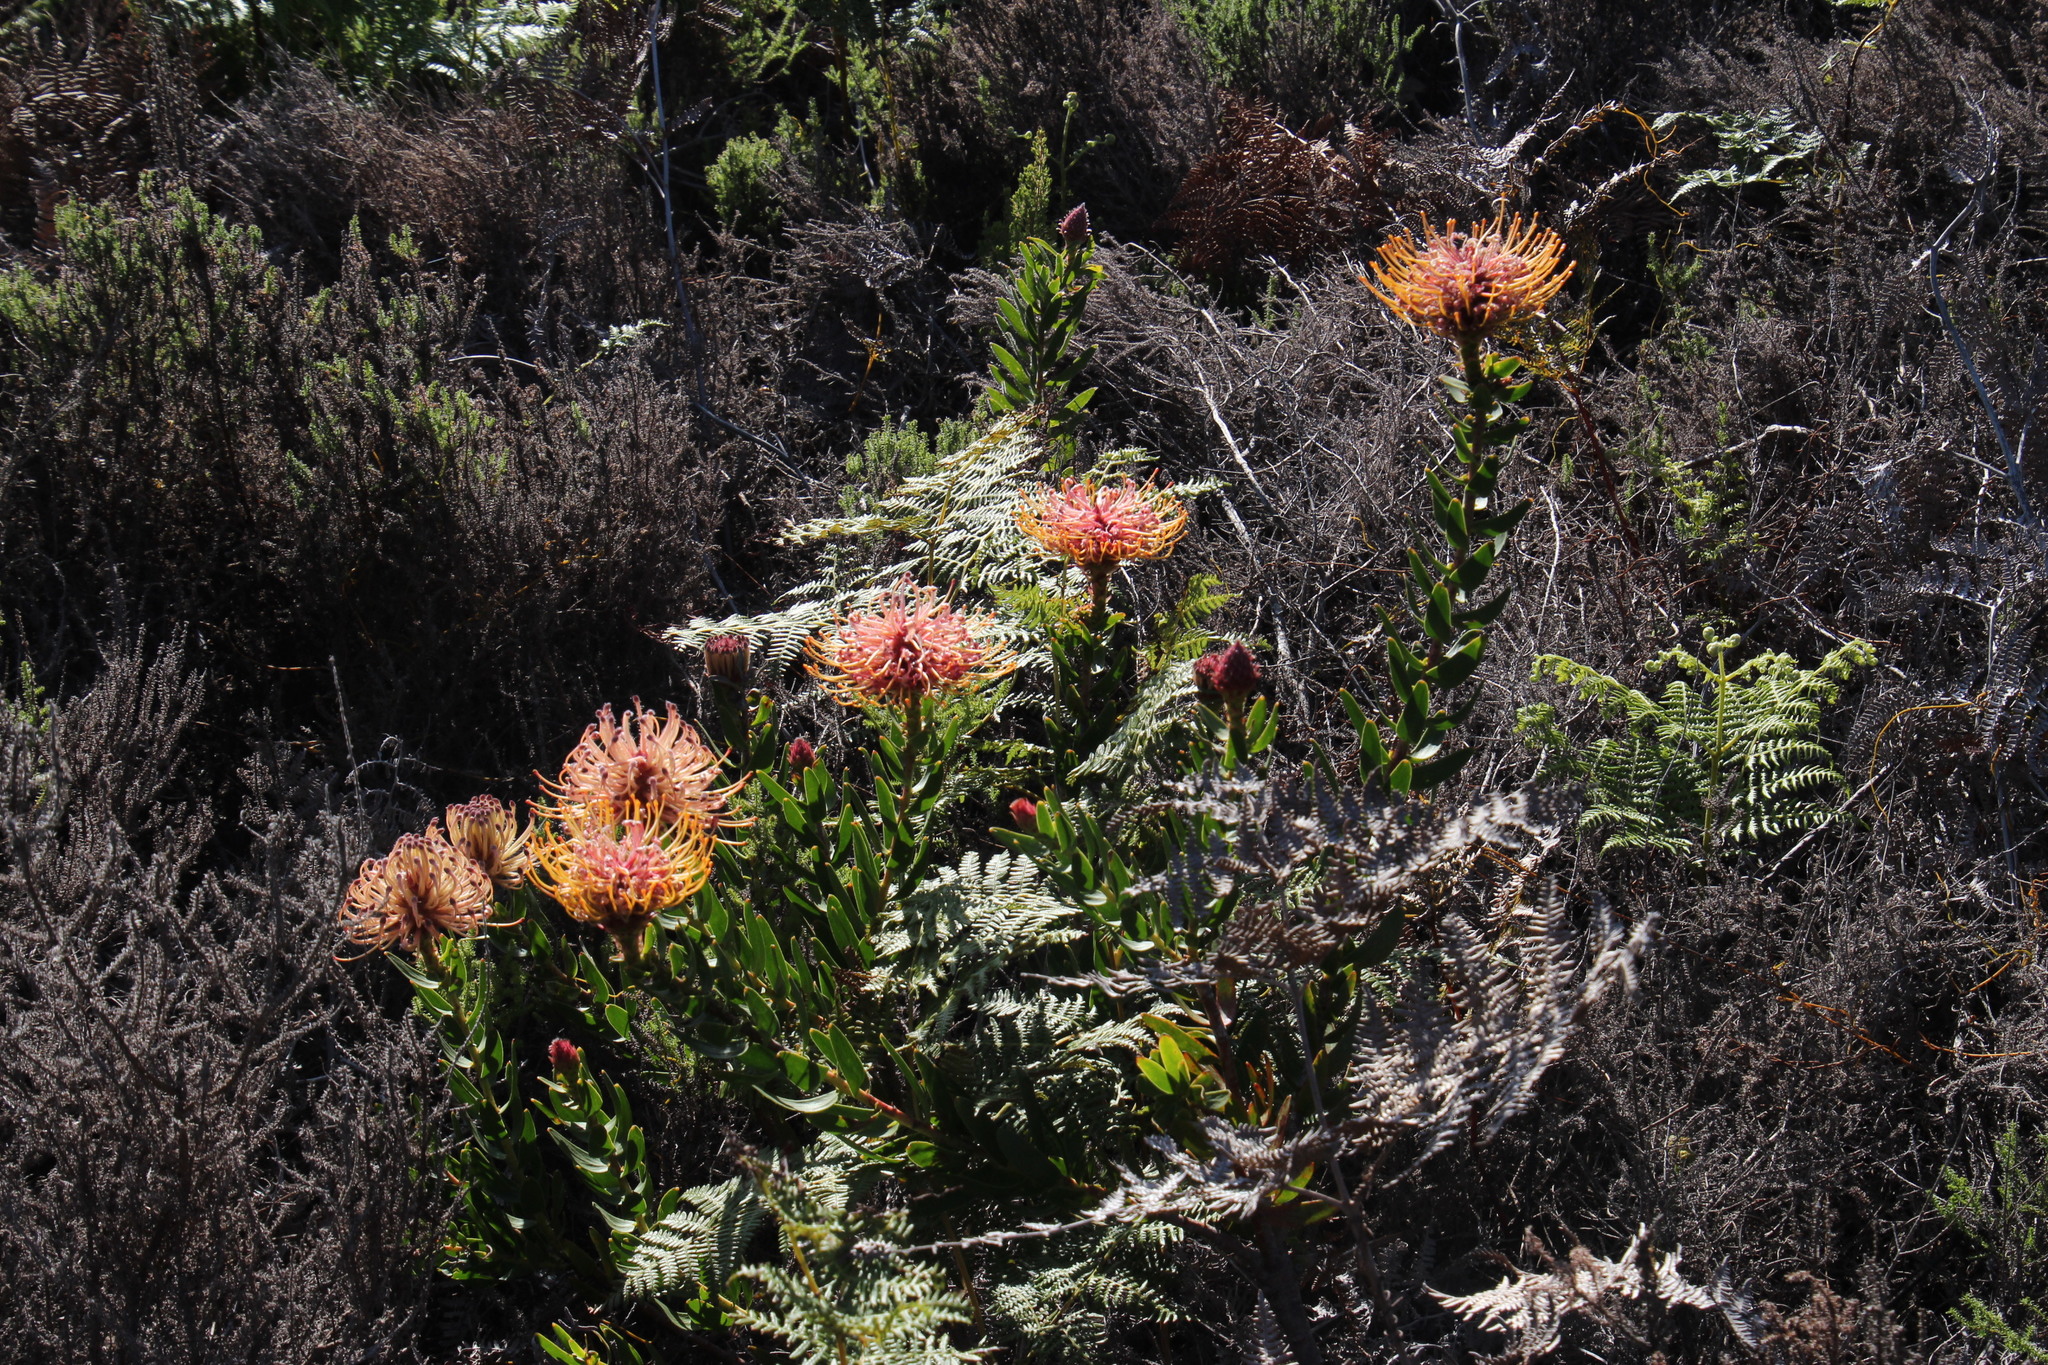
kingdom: Plantae
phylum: Tracheophyta
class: Magnoliopsida
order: Proteales
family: Proteaceae
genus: Leucospermum
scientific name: Leucospermum tottum
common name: Ribbon pincushion
